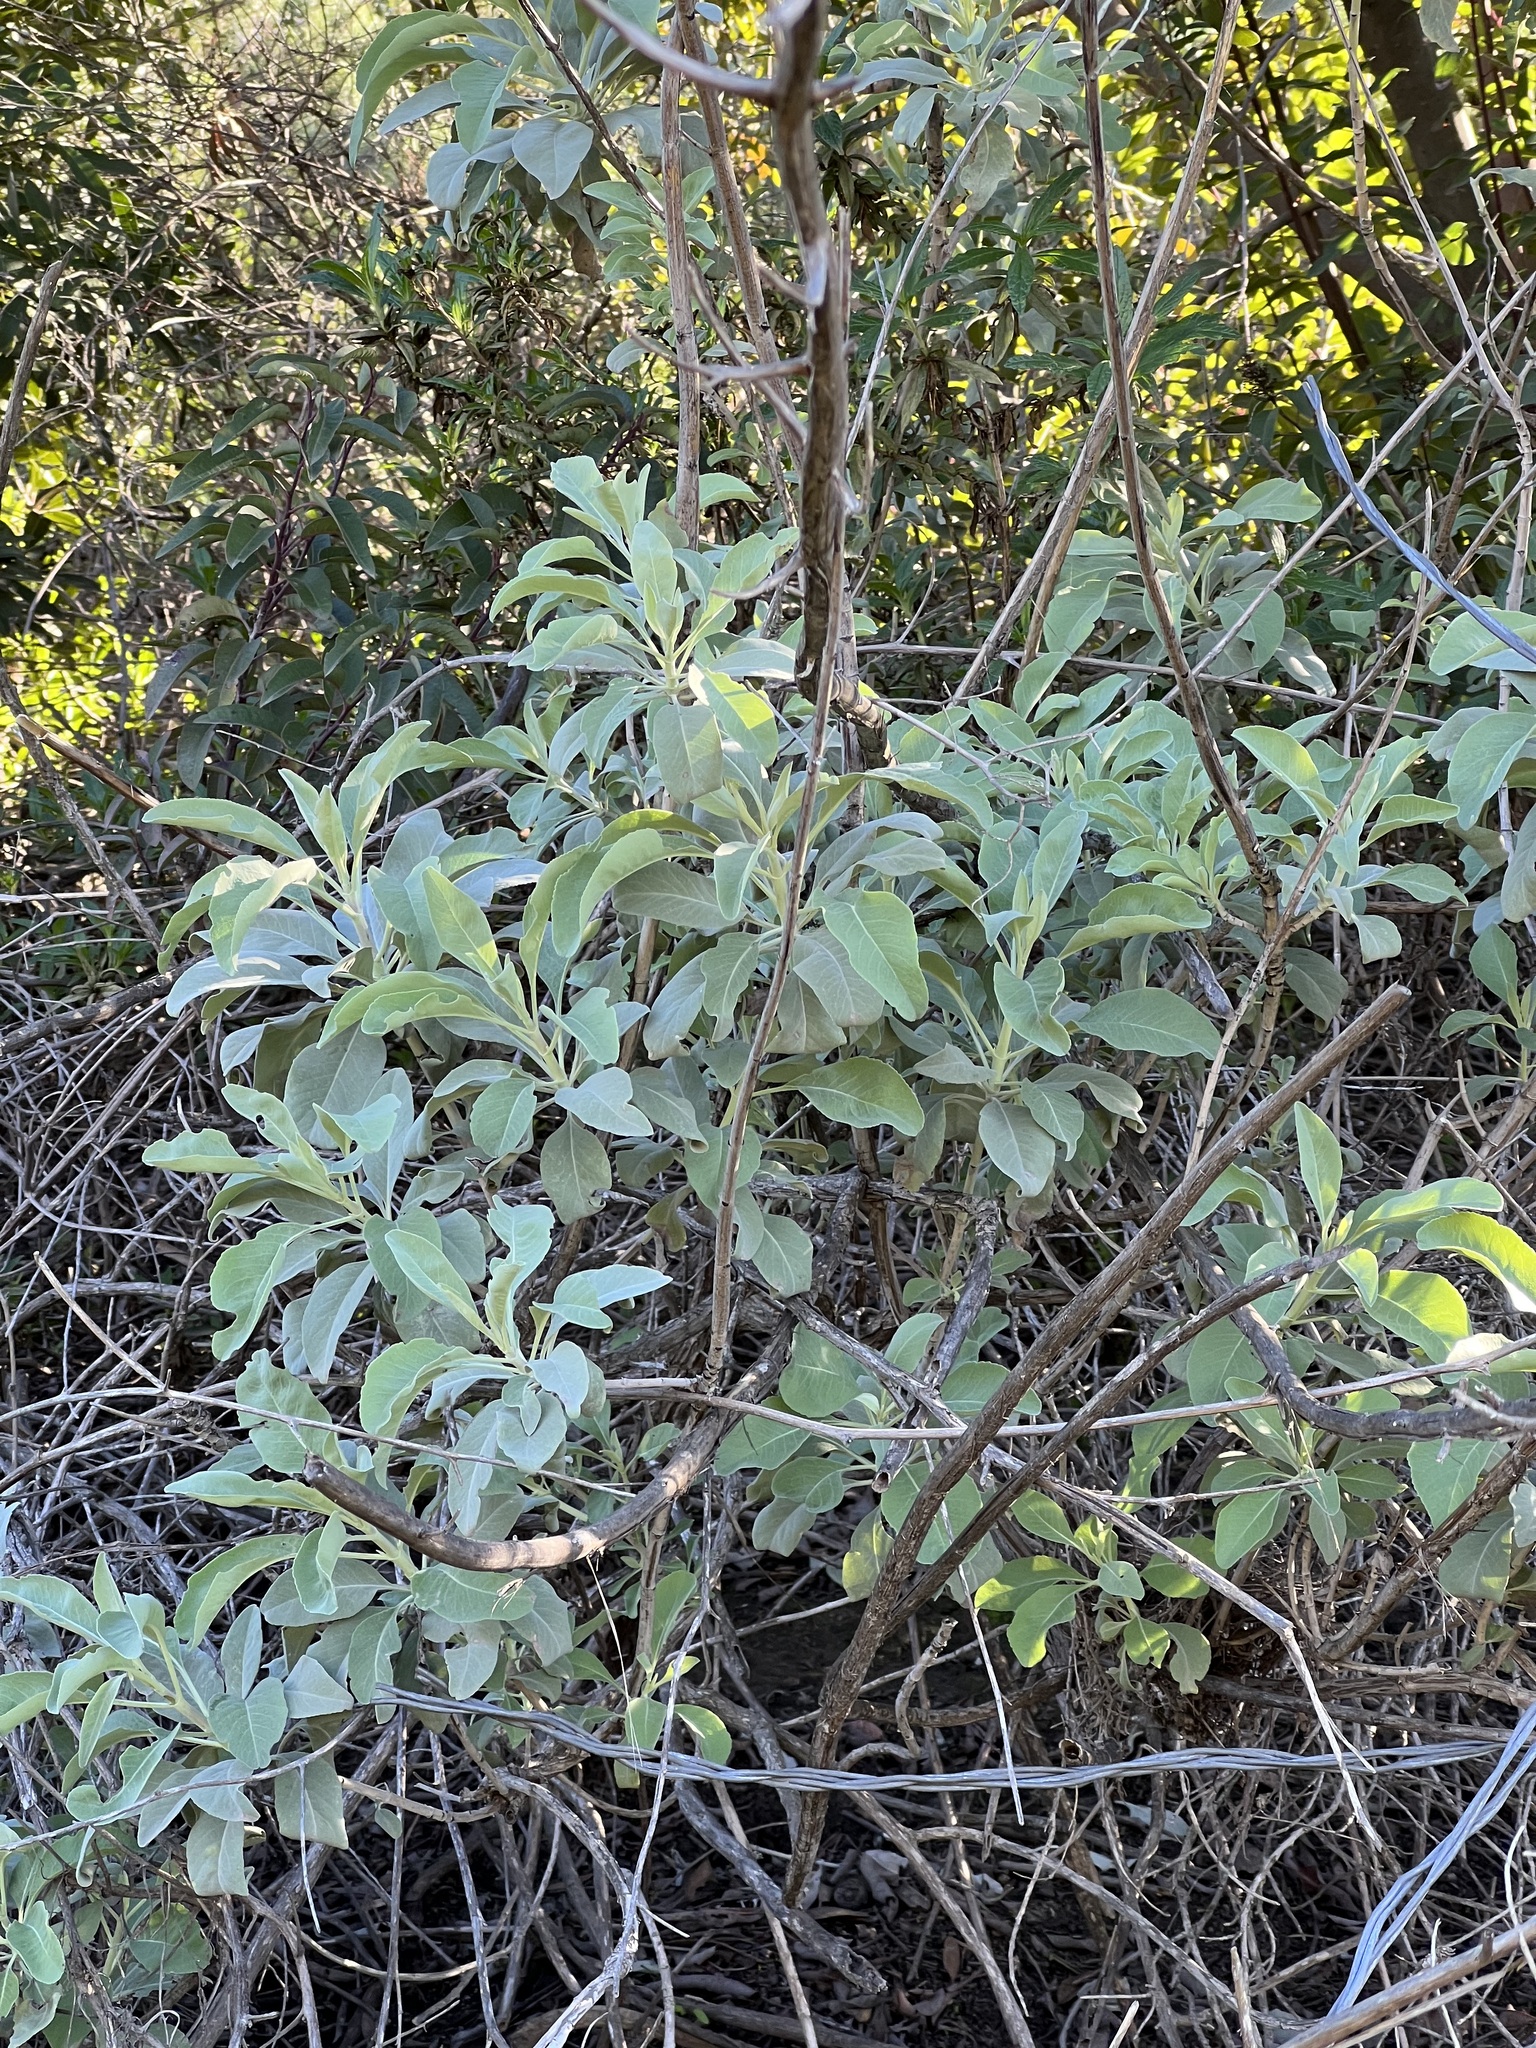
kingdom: Plantae
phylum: Tracheophyta
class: Magnoliopsida
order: Lamiales
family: Lamiaceae
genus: Salvia
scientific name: Salvia apiana
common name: White sage
